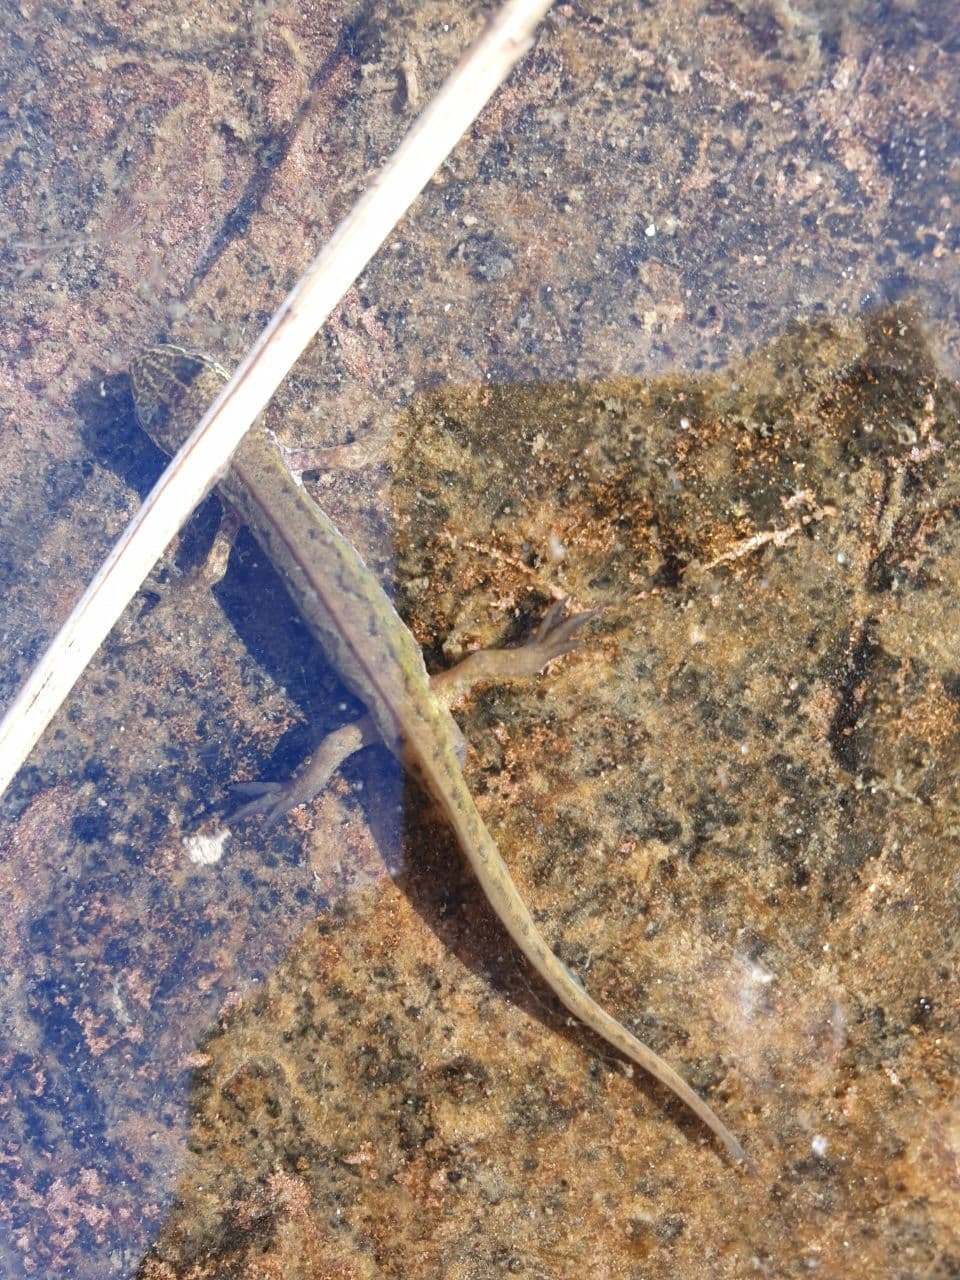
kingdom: Animalia
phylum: Chordata
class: Amphibia
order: Caudata
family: Salamandridae
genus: Lissotriton
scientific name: Lissotriton helveticus
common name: Palmate newt
